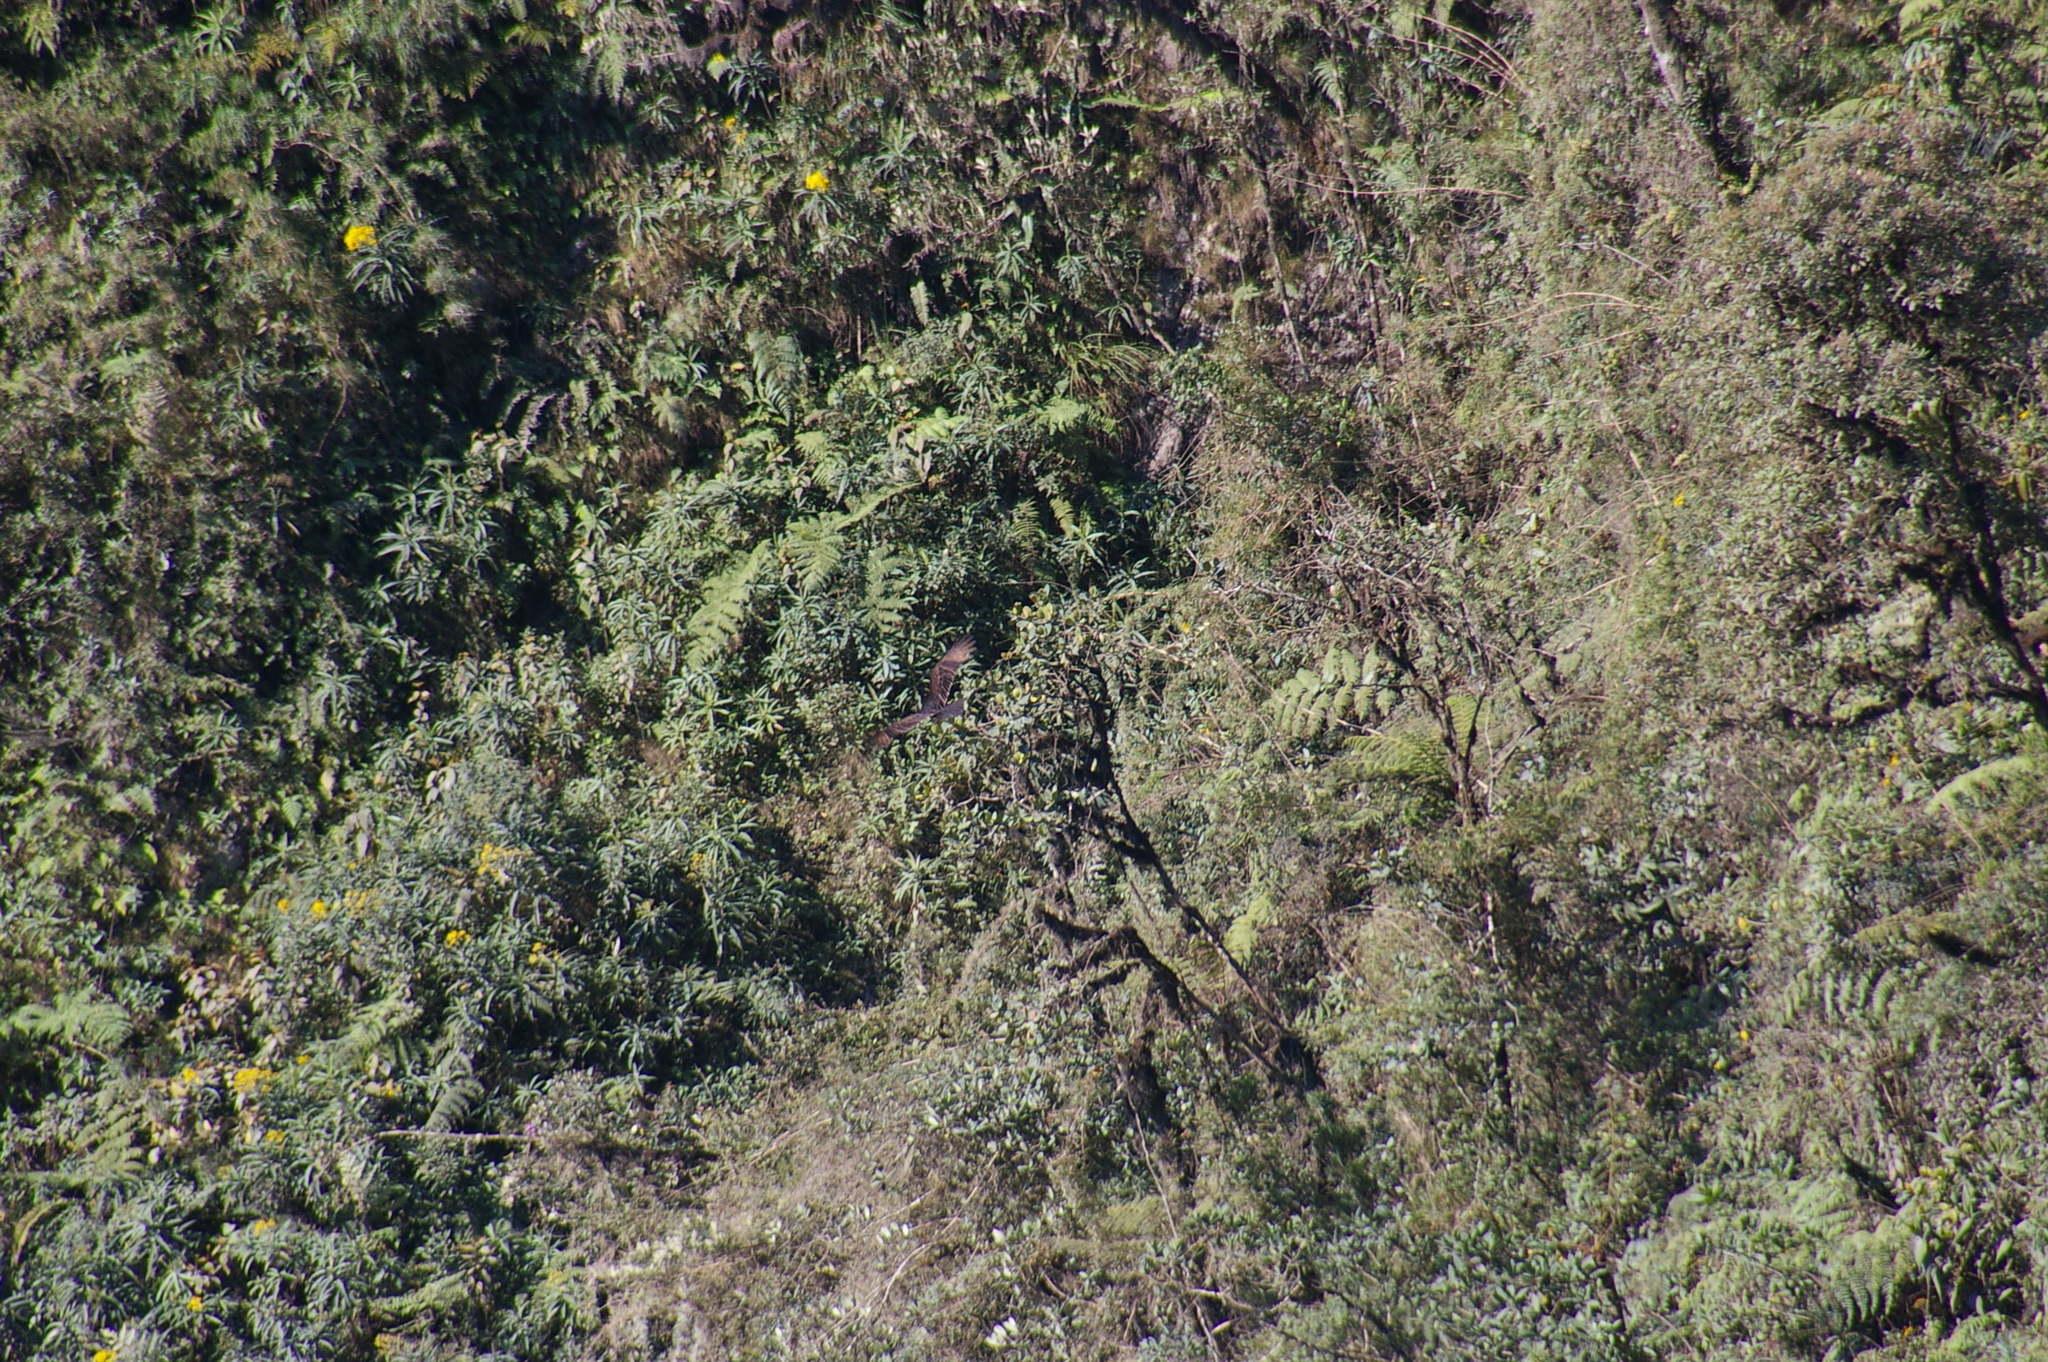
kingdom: Animalia
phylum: Chordata
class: Aves
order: Accipitriformes
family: Cathartidae
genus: Cathartes
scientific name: Cathartes aura
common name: Turkey vulture
